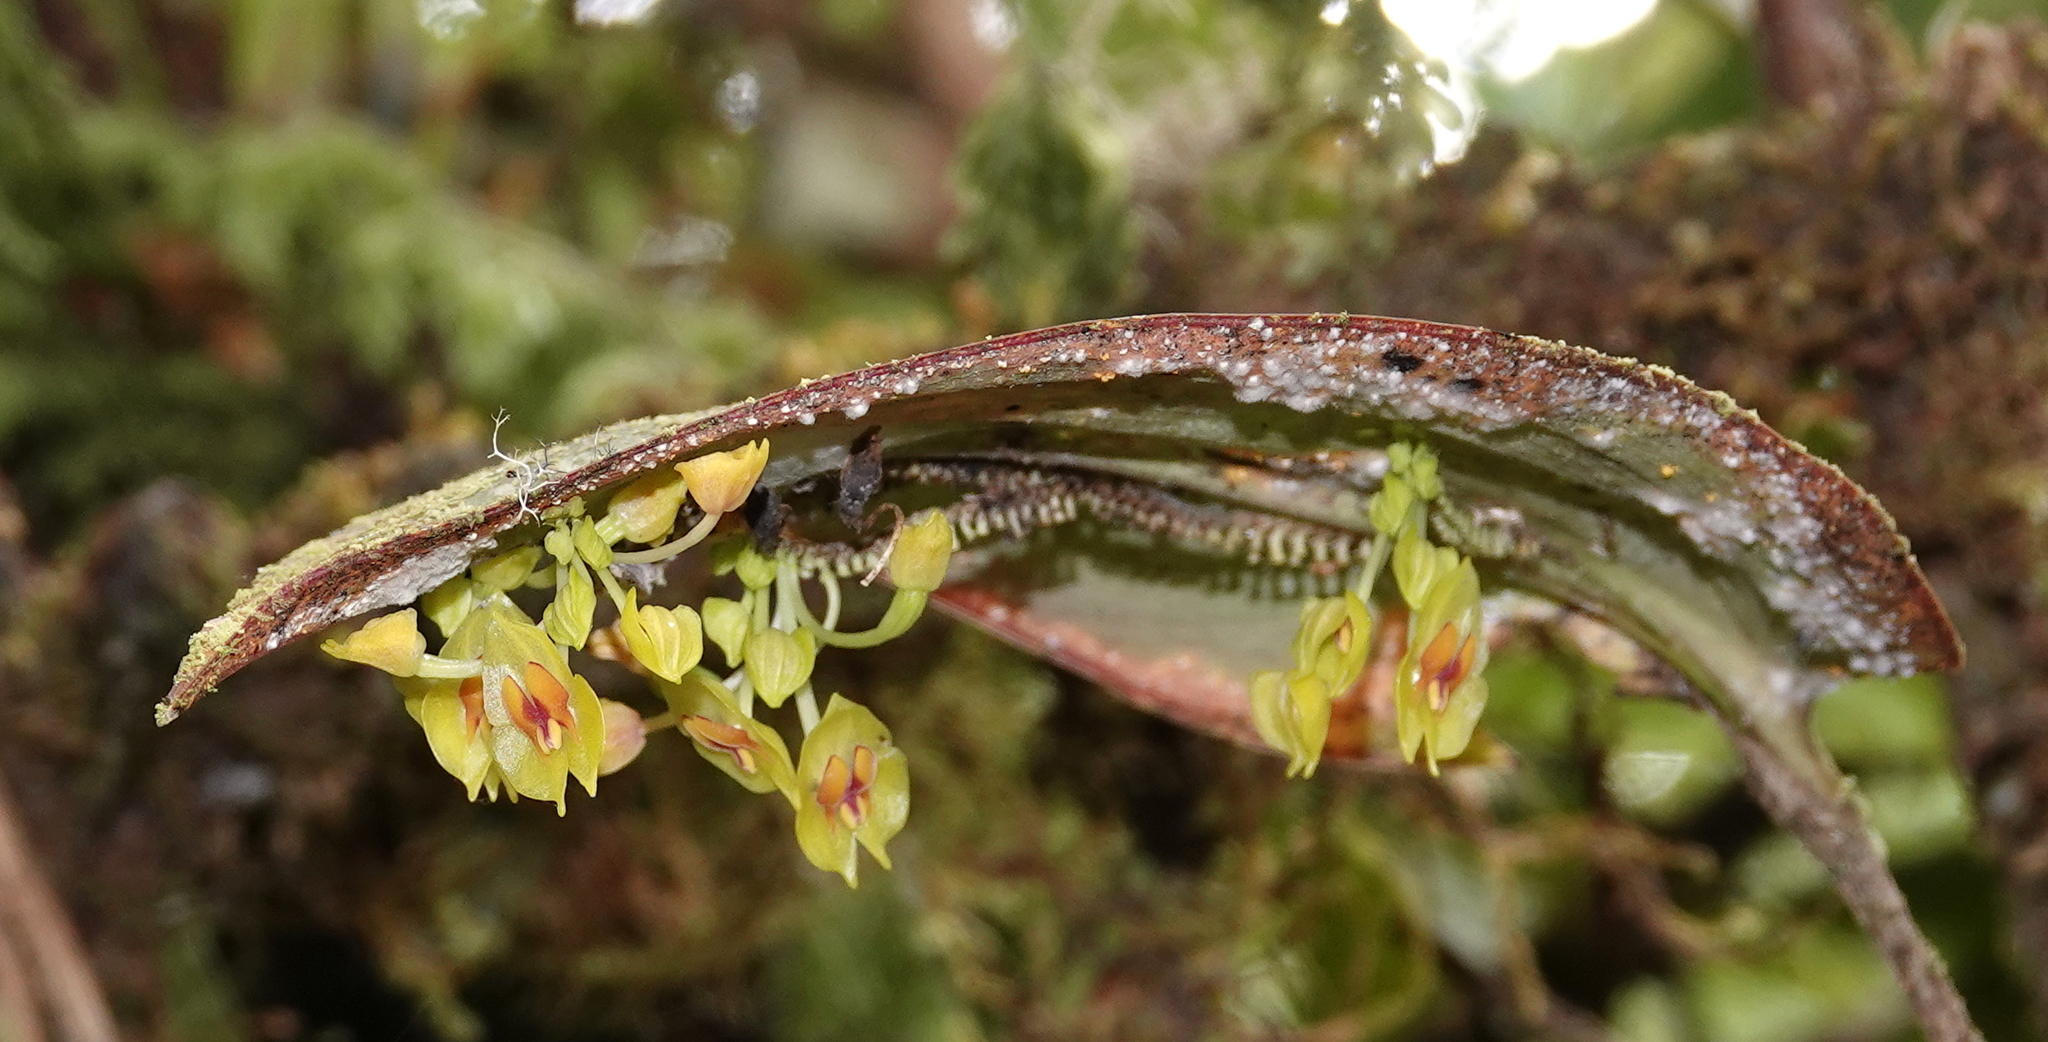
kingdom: Plantae
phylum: Tracheophyta
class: Liliopsida
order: Asparagales
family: Orchidaceae
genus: Lepanthes
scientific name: Lepanthes gargantua
